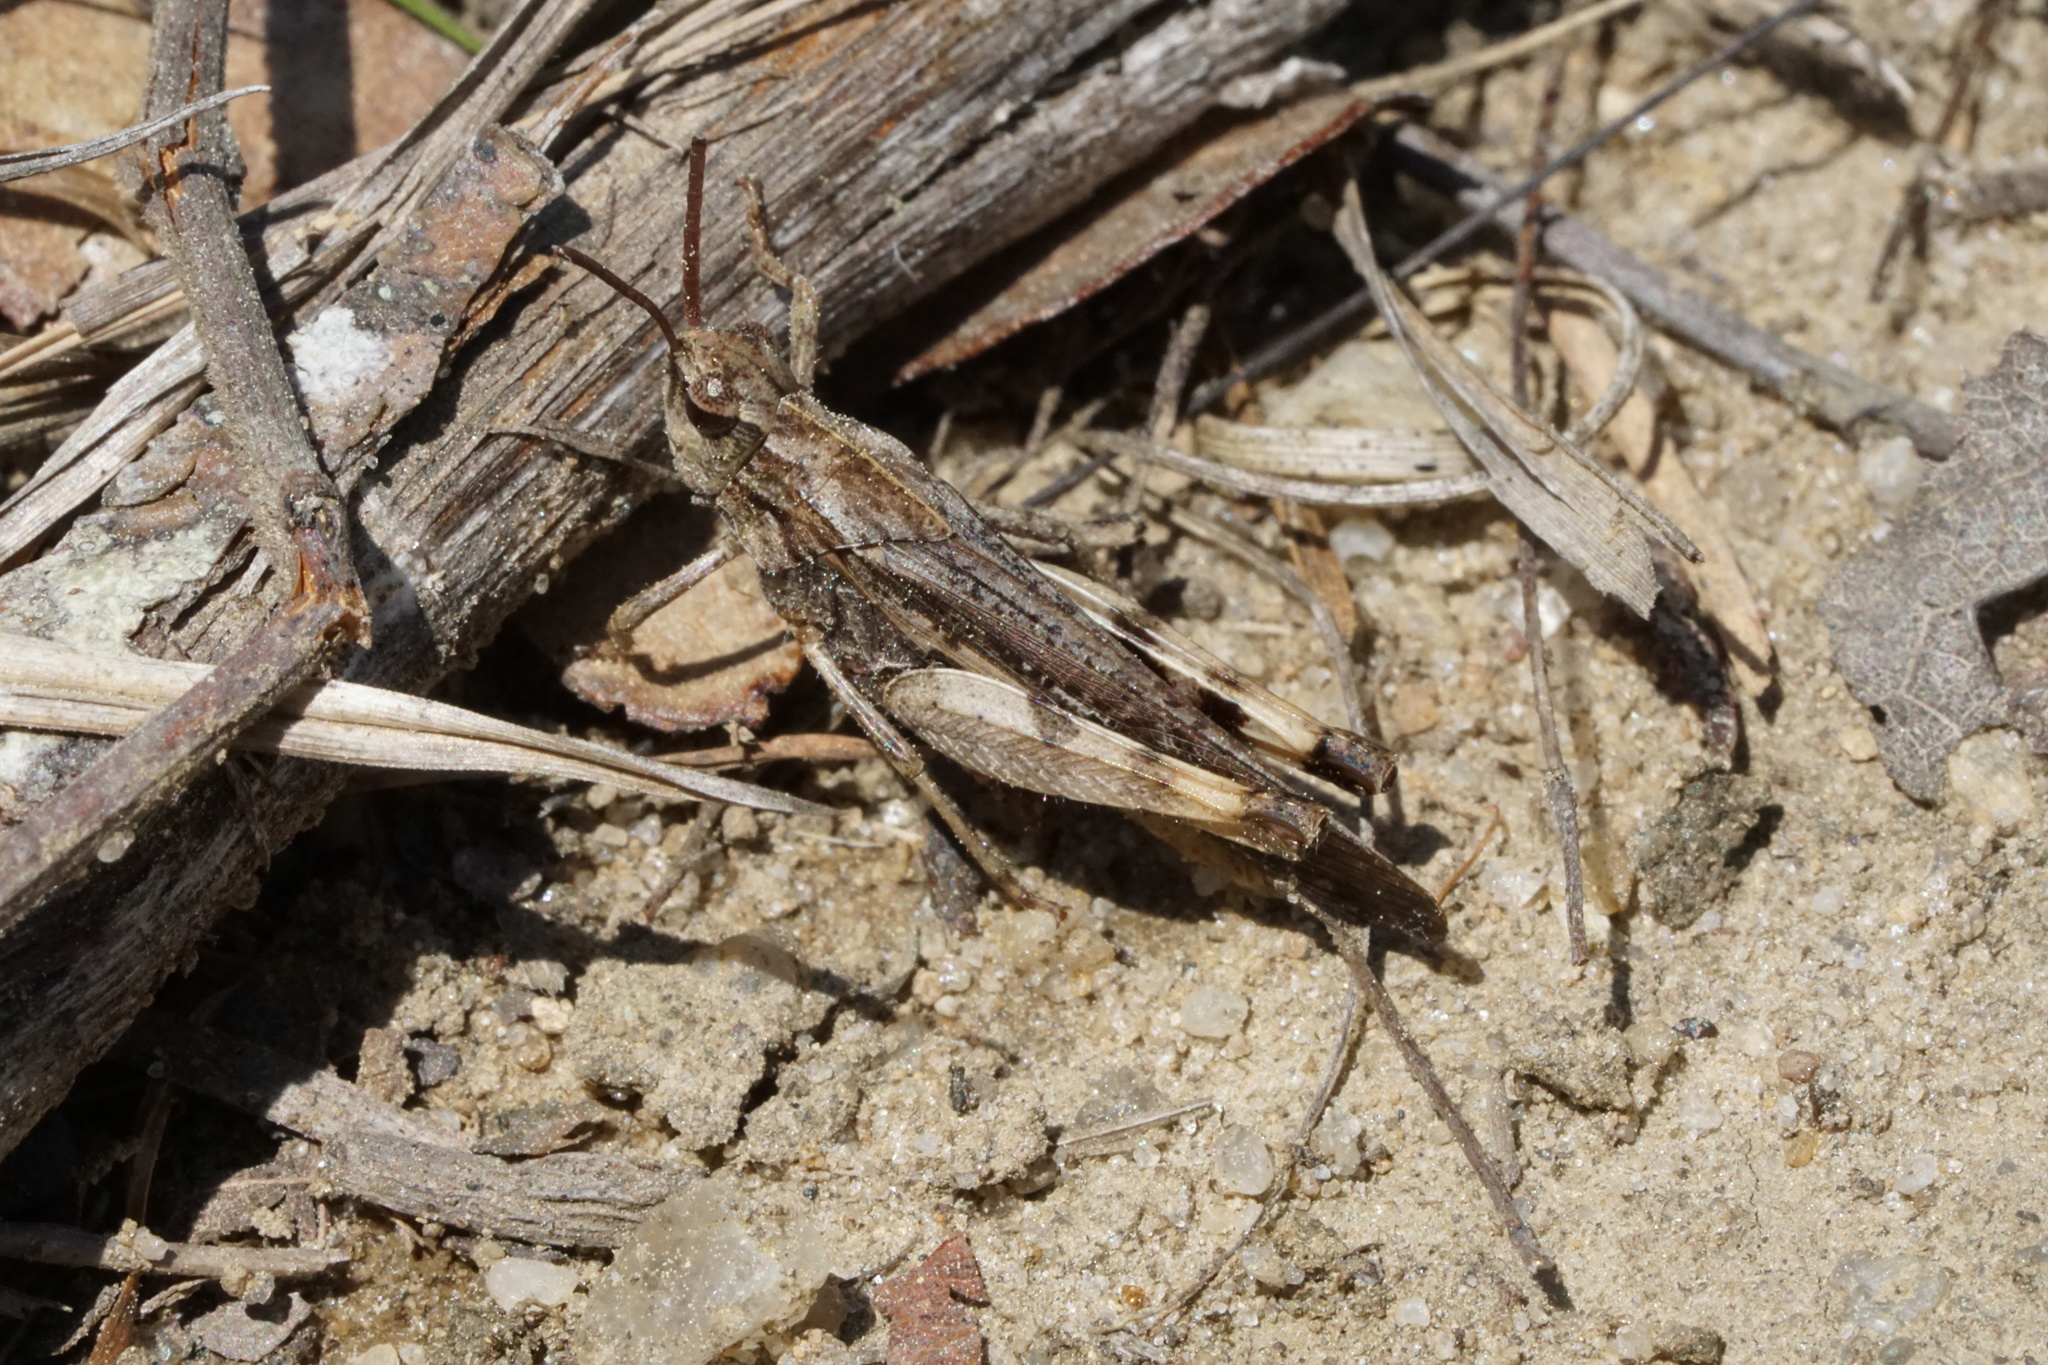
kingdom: Animalia
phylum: Arthropoda
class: Insecta
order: Orthoptera
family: Acrididae
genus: Chortophaga
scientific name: Chortophaga viridifasciata
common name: Green-striped grasshopper
